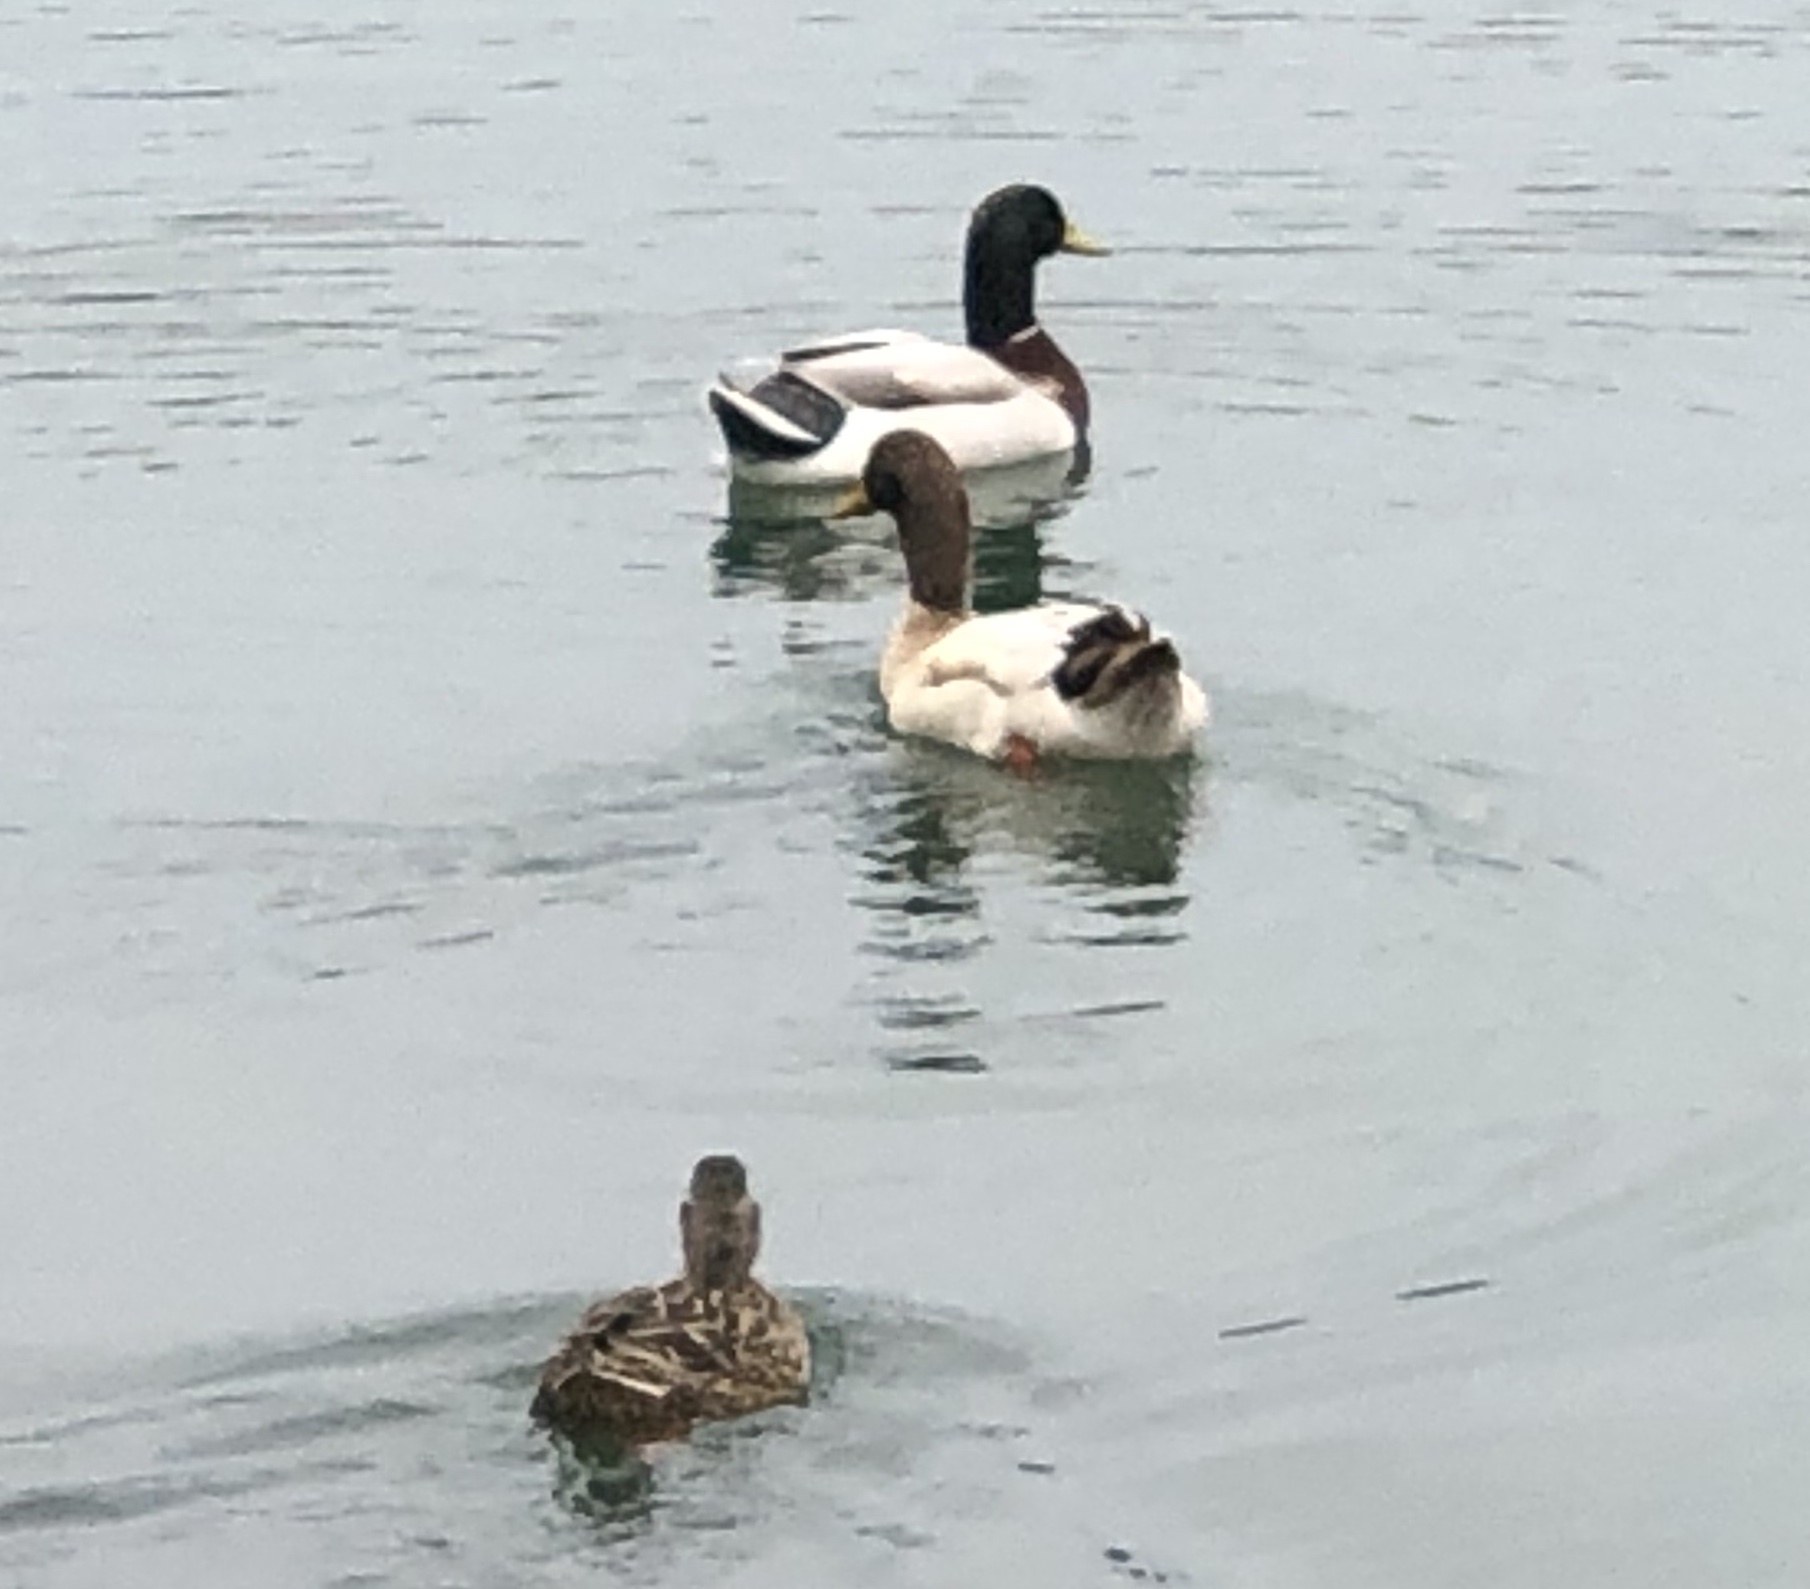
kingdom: Animalia
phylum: Chordata
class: Aves
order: Anseriformes
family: Anatidae
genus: Anas
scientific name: Anas platyrhynchos
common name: Mallard
